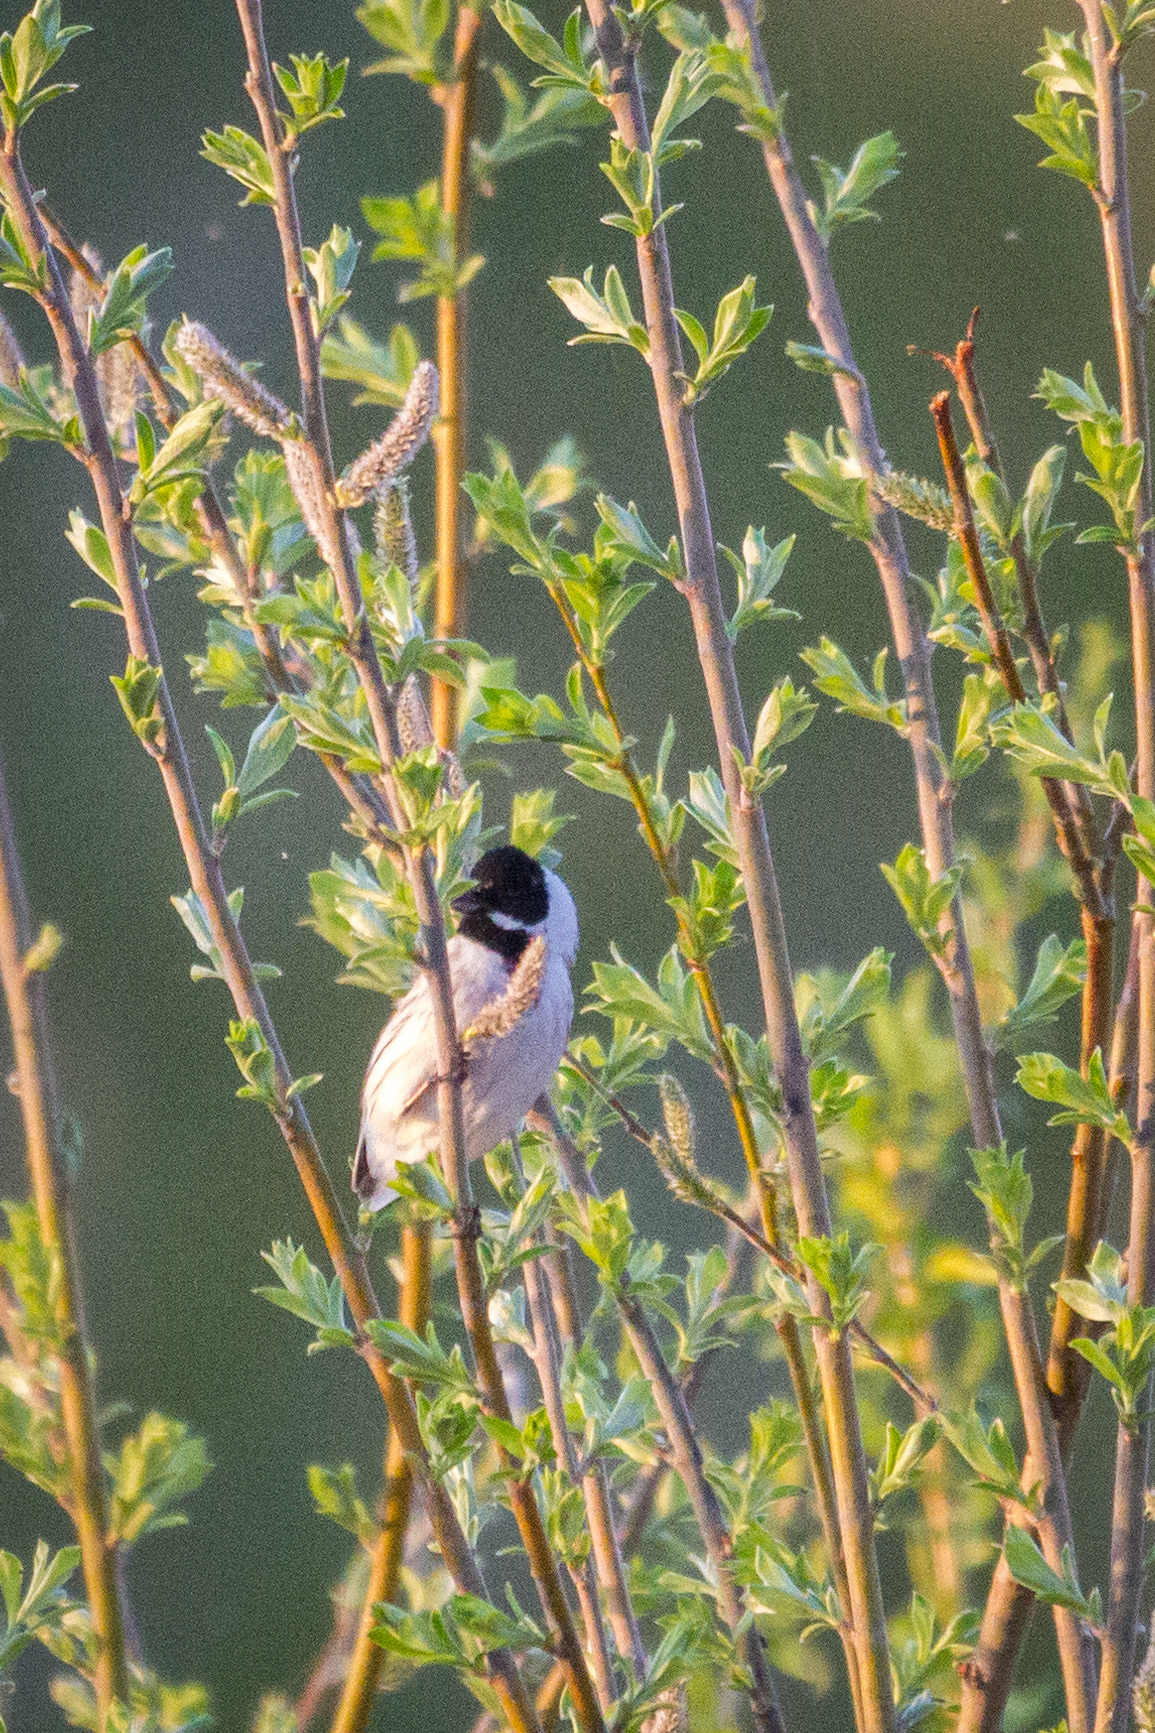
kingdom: Animalia
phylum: Chordata
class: Aves
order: Passeriformes
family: Emberizidae
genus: Emberiza
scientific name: Emberiza schoeniclus
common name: Reed bunting
